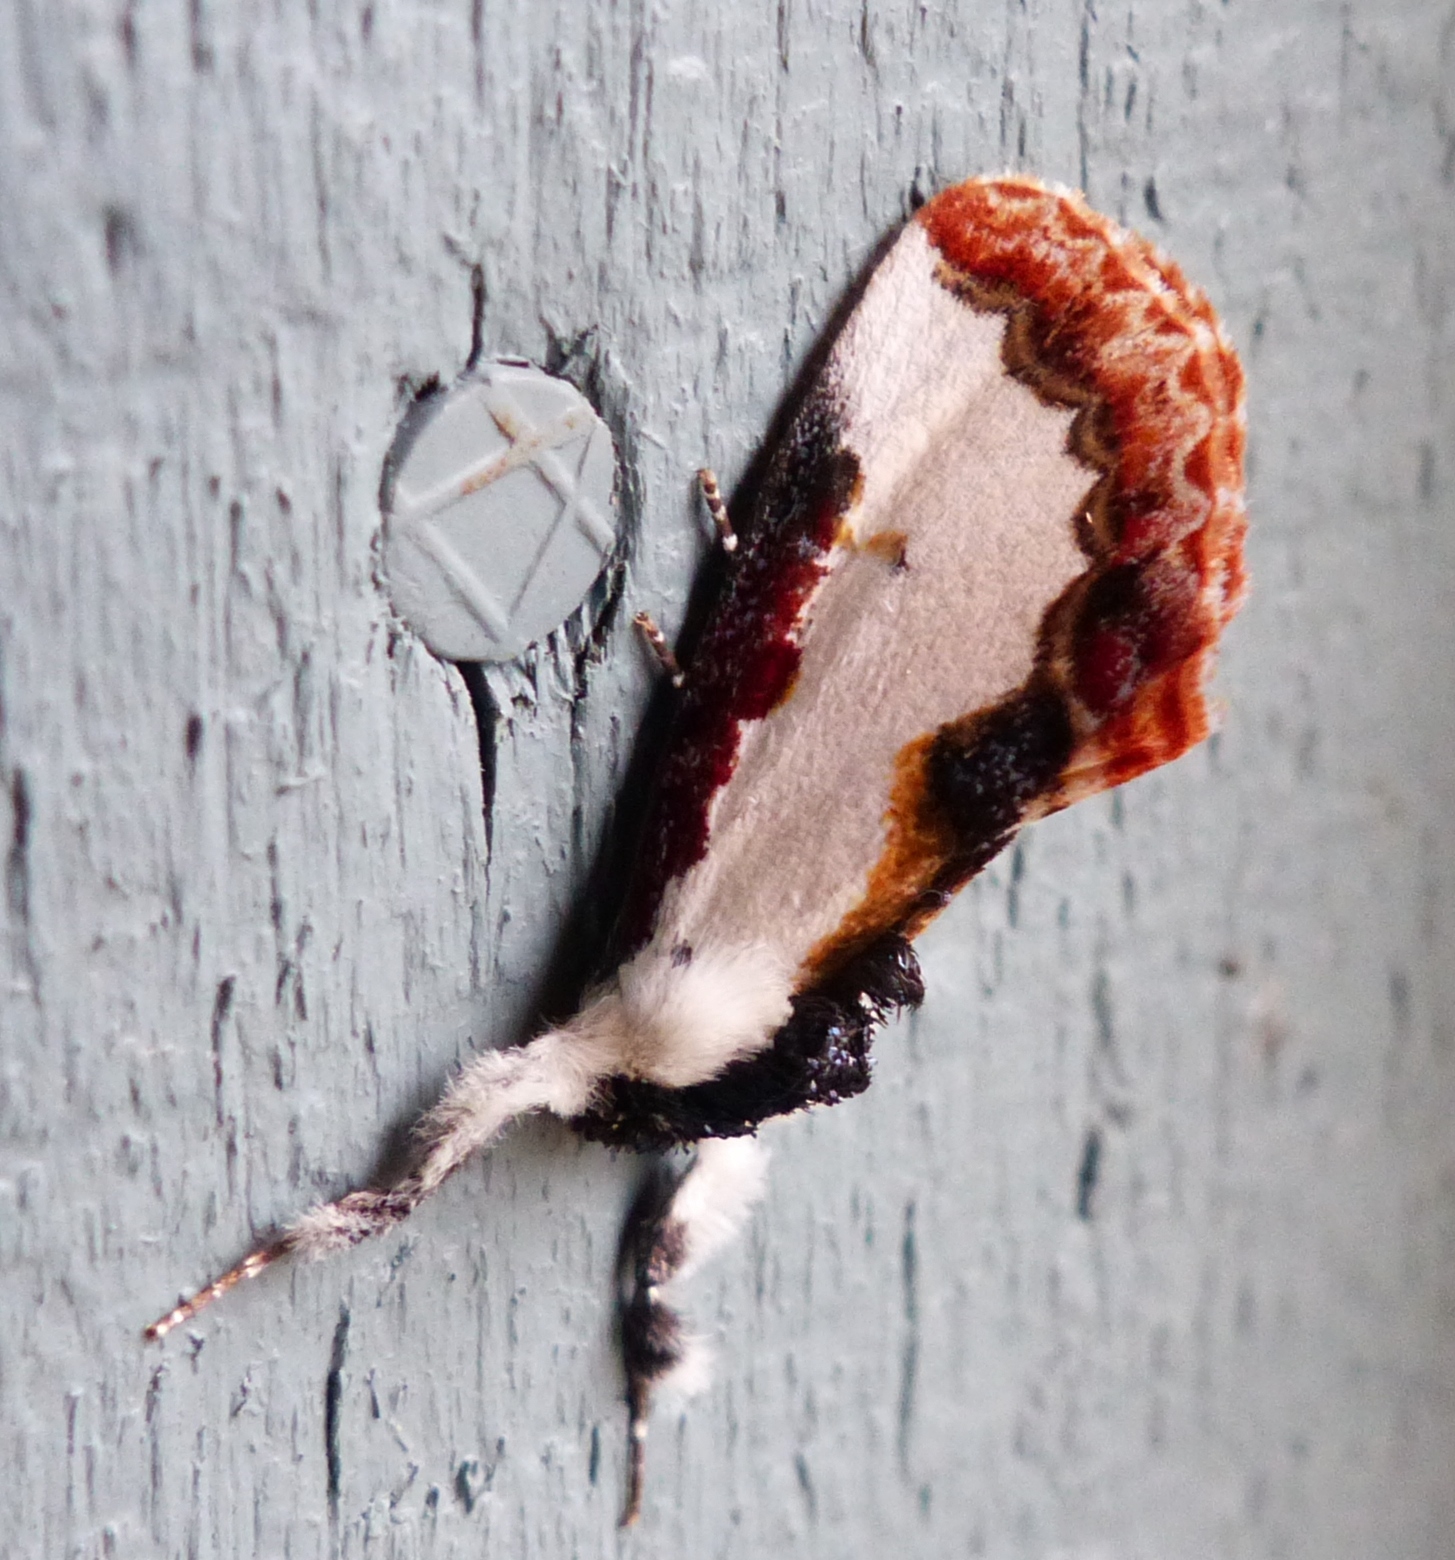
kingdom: Animalia
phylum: Arthropoda
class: Insecta
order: Lepidoptera
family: Noctuidae
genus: Eudryas
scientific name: Eudryas unio
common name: Pearly wood-nymph
